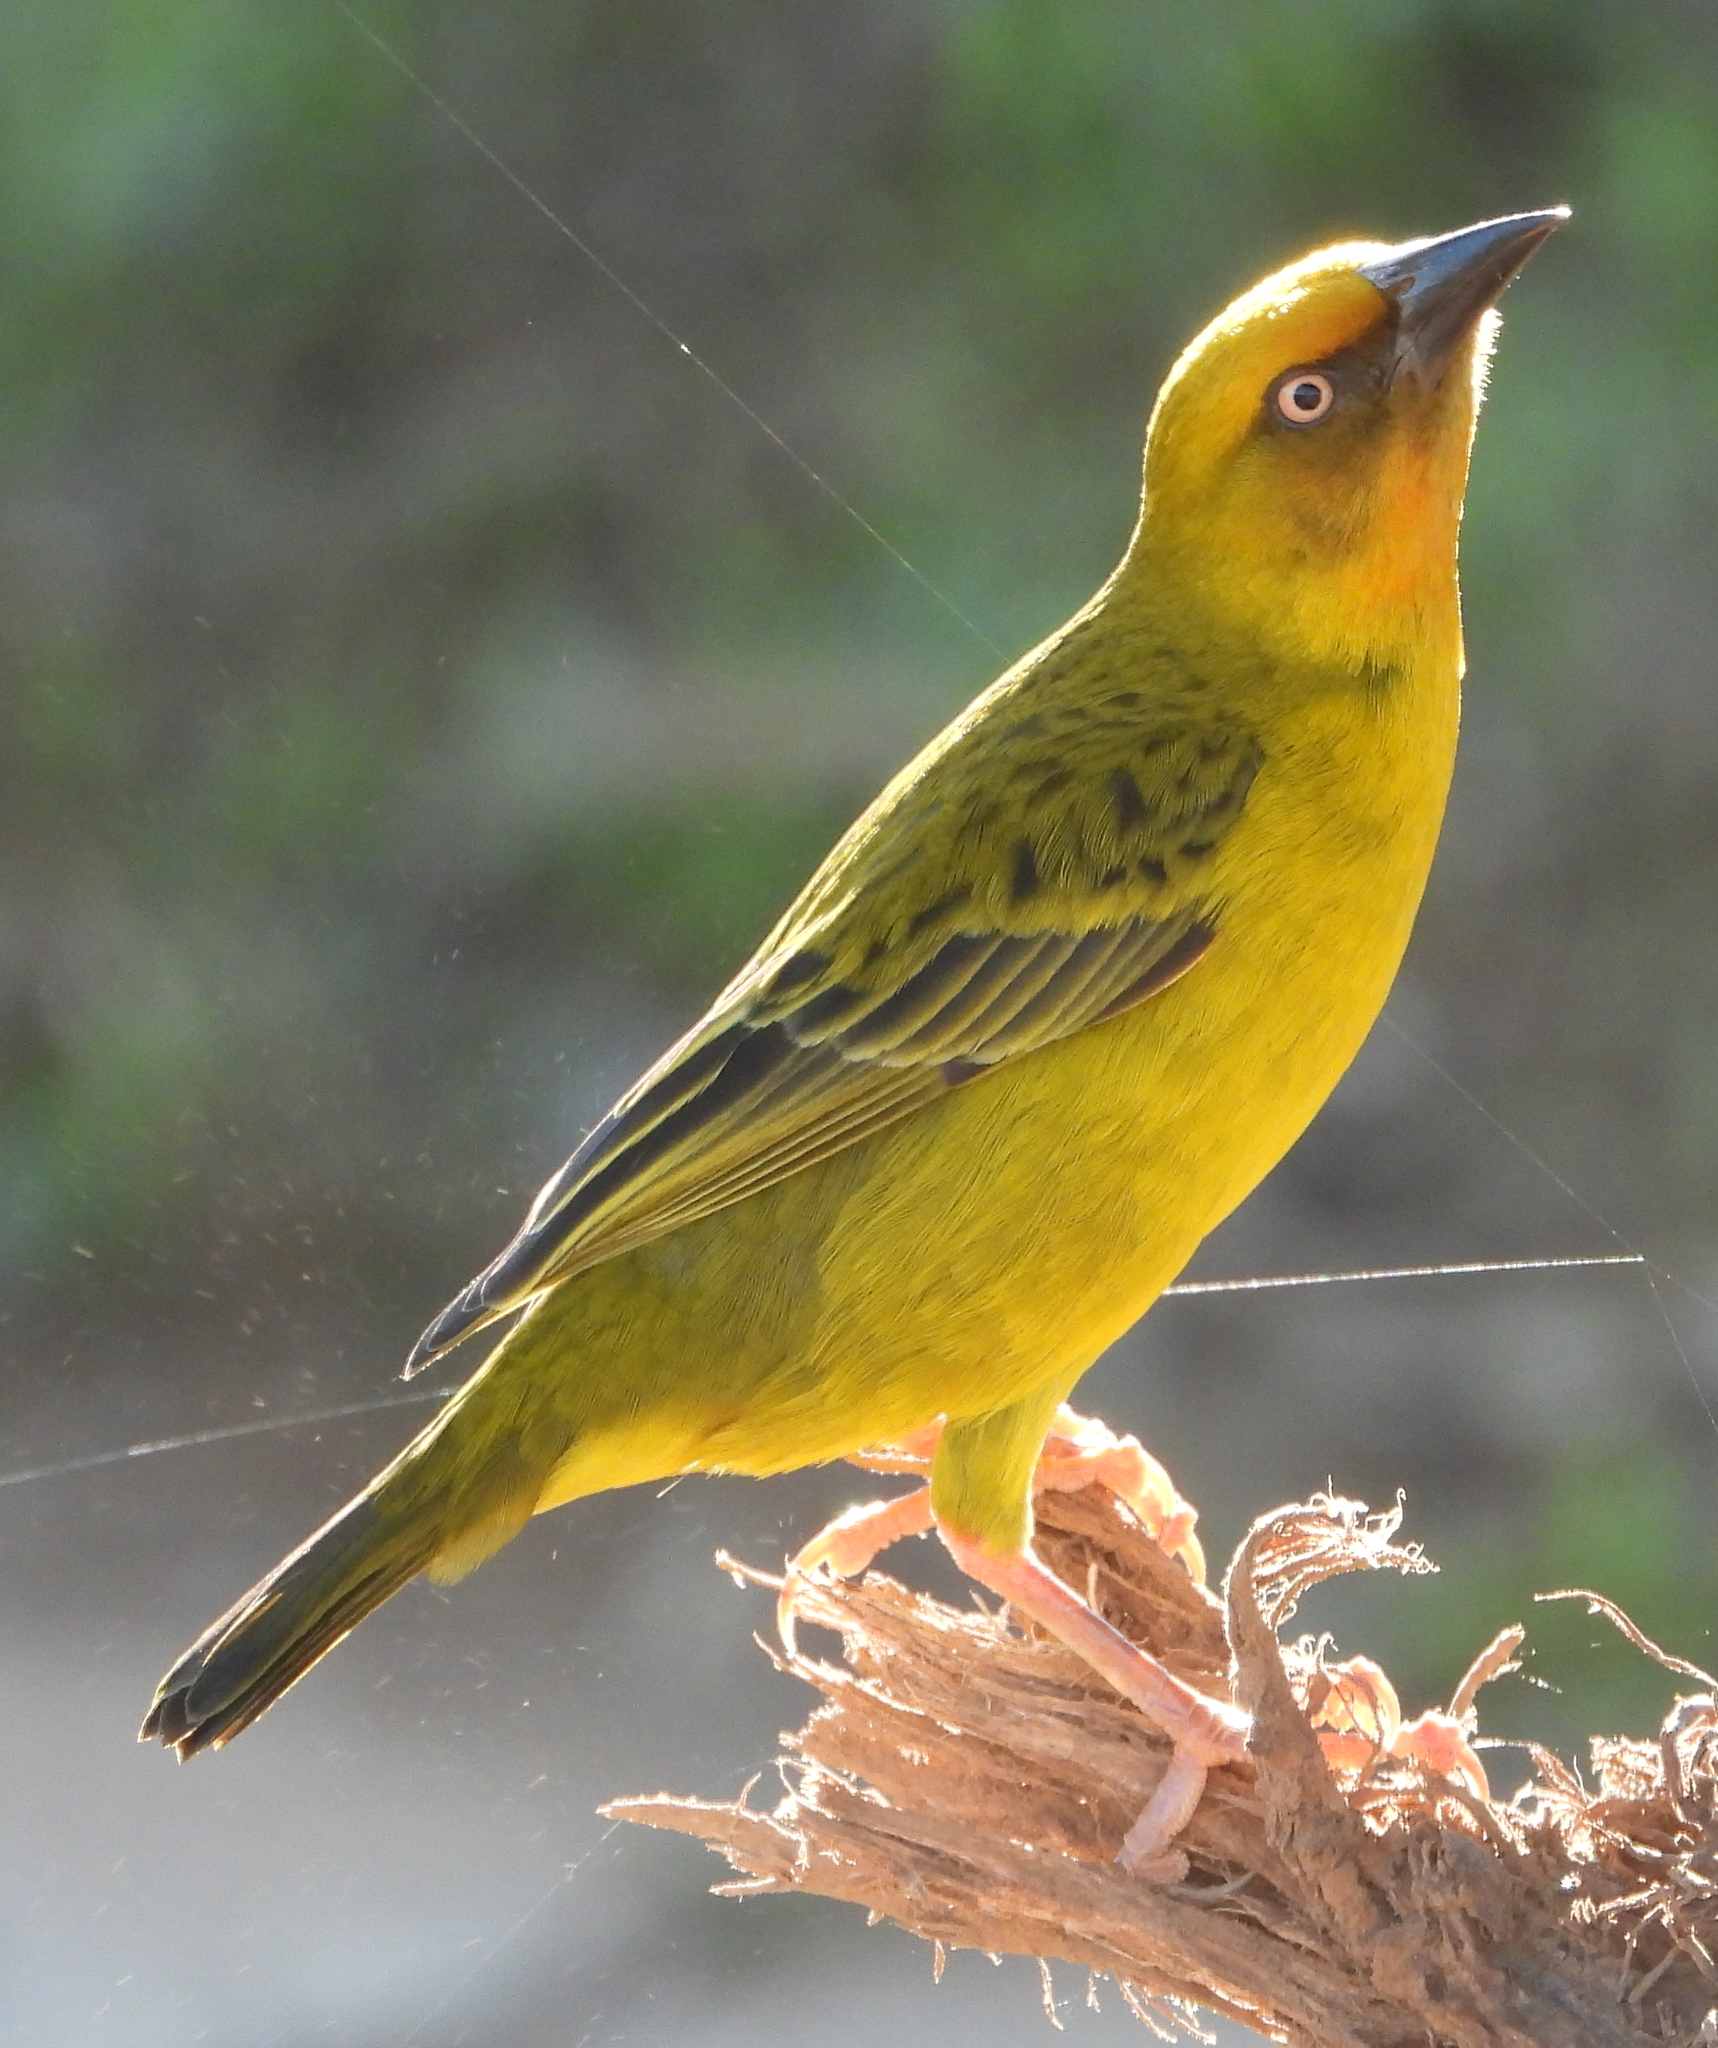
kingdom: Animalia
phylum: Chordata
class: Aves
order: Passeriformes
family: Ploceidae
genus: Ploceus
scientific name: Ploceus capensis
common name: Cape weaver
